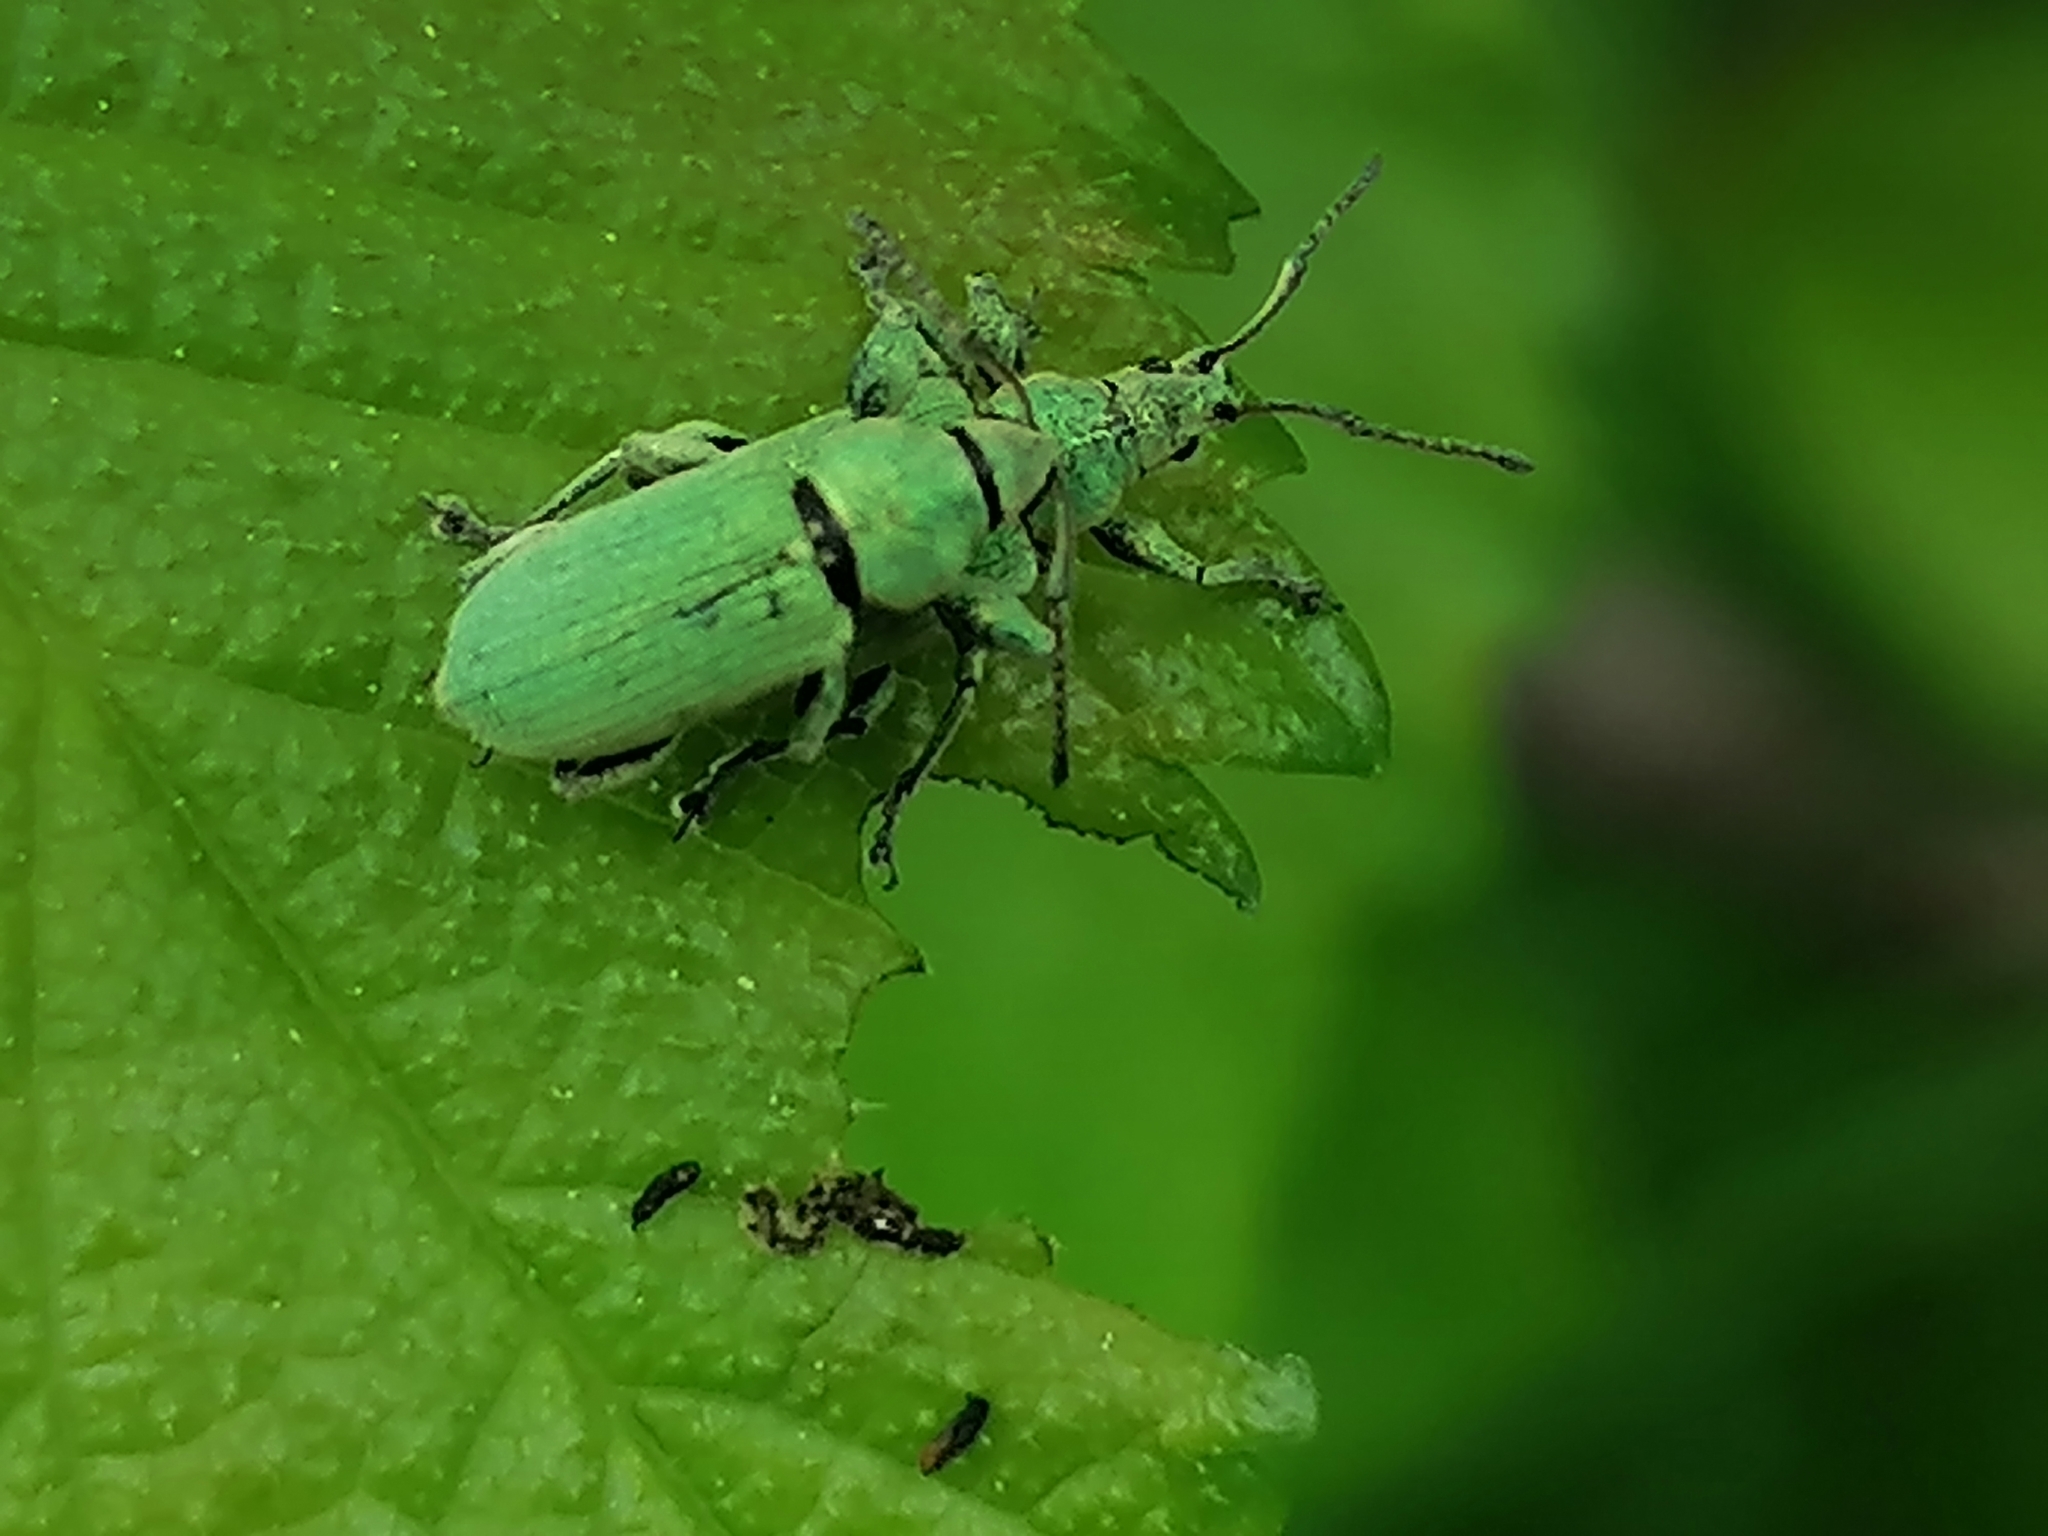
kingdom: Animalia
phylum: Arthropoda
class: Insecta
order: Coleoptera
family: Curculionidae
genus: Phyllobius
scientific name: Phyllobius maculicornis
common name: Green leaf weevil
